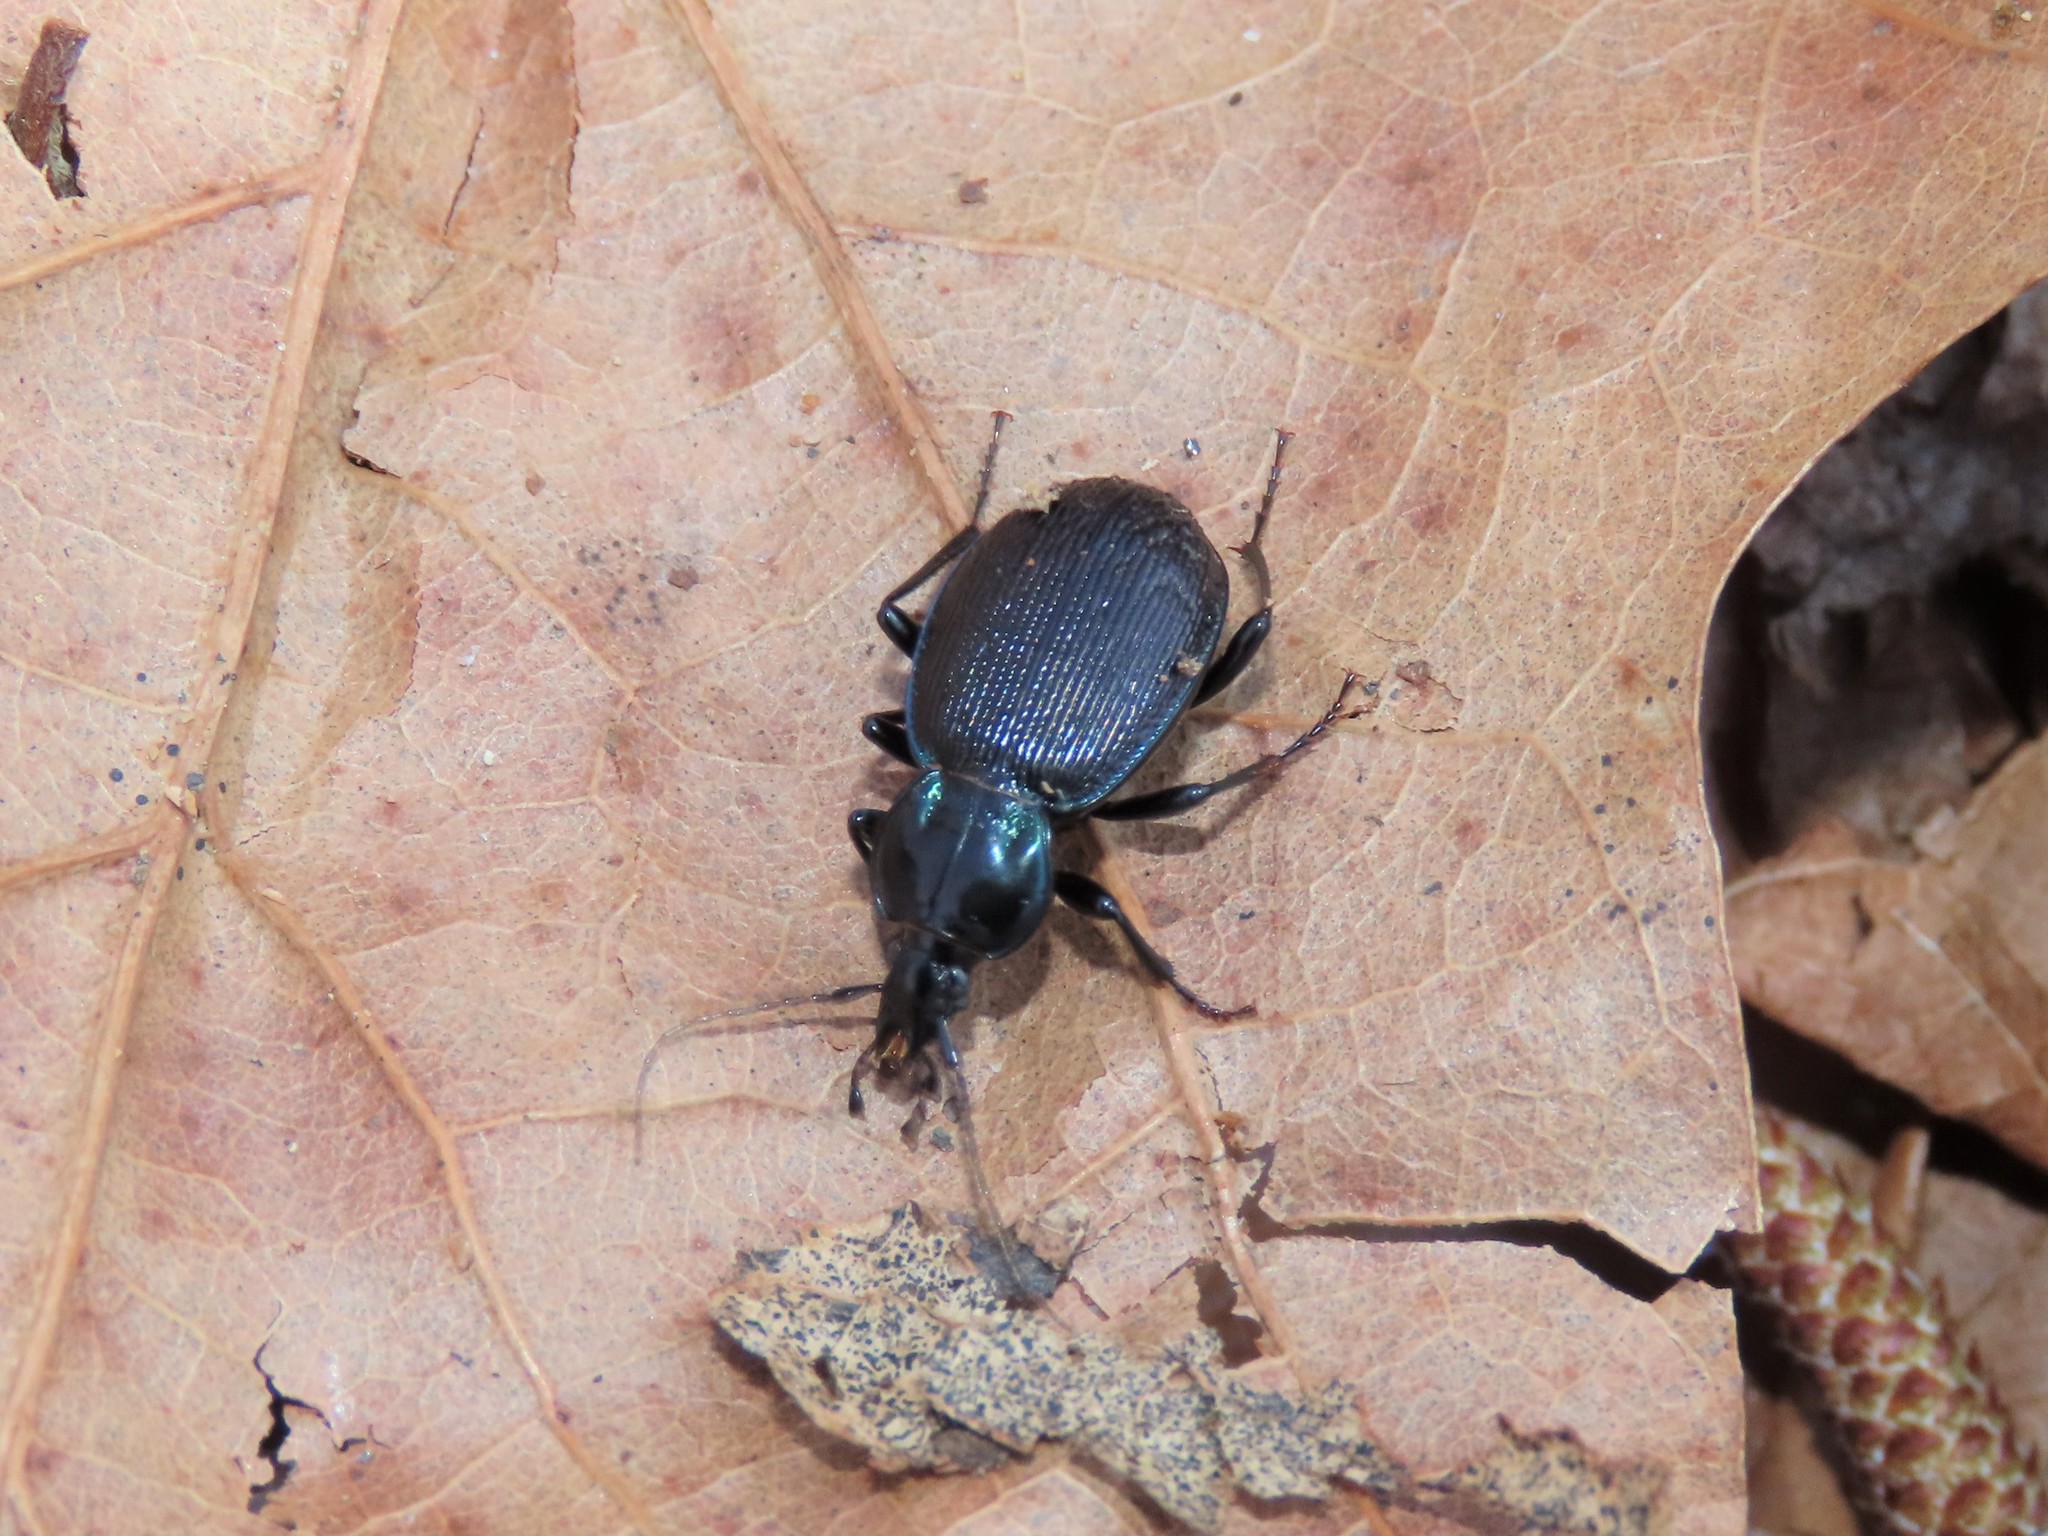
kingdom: Animalia
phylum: Arthropoda
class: Insecta
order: Coleoptera
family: Carabidae
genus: Sphaeroderus
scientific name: Sphaeroderus stenostomus
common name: Small snail-eating ground beetle
